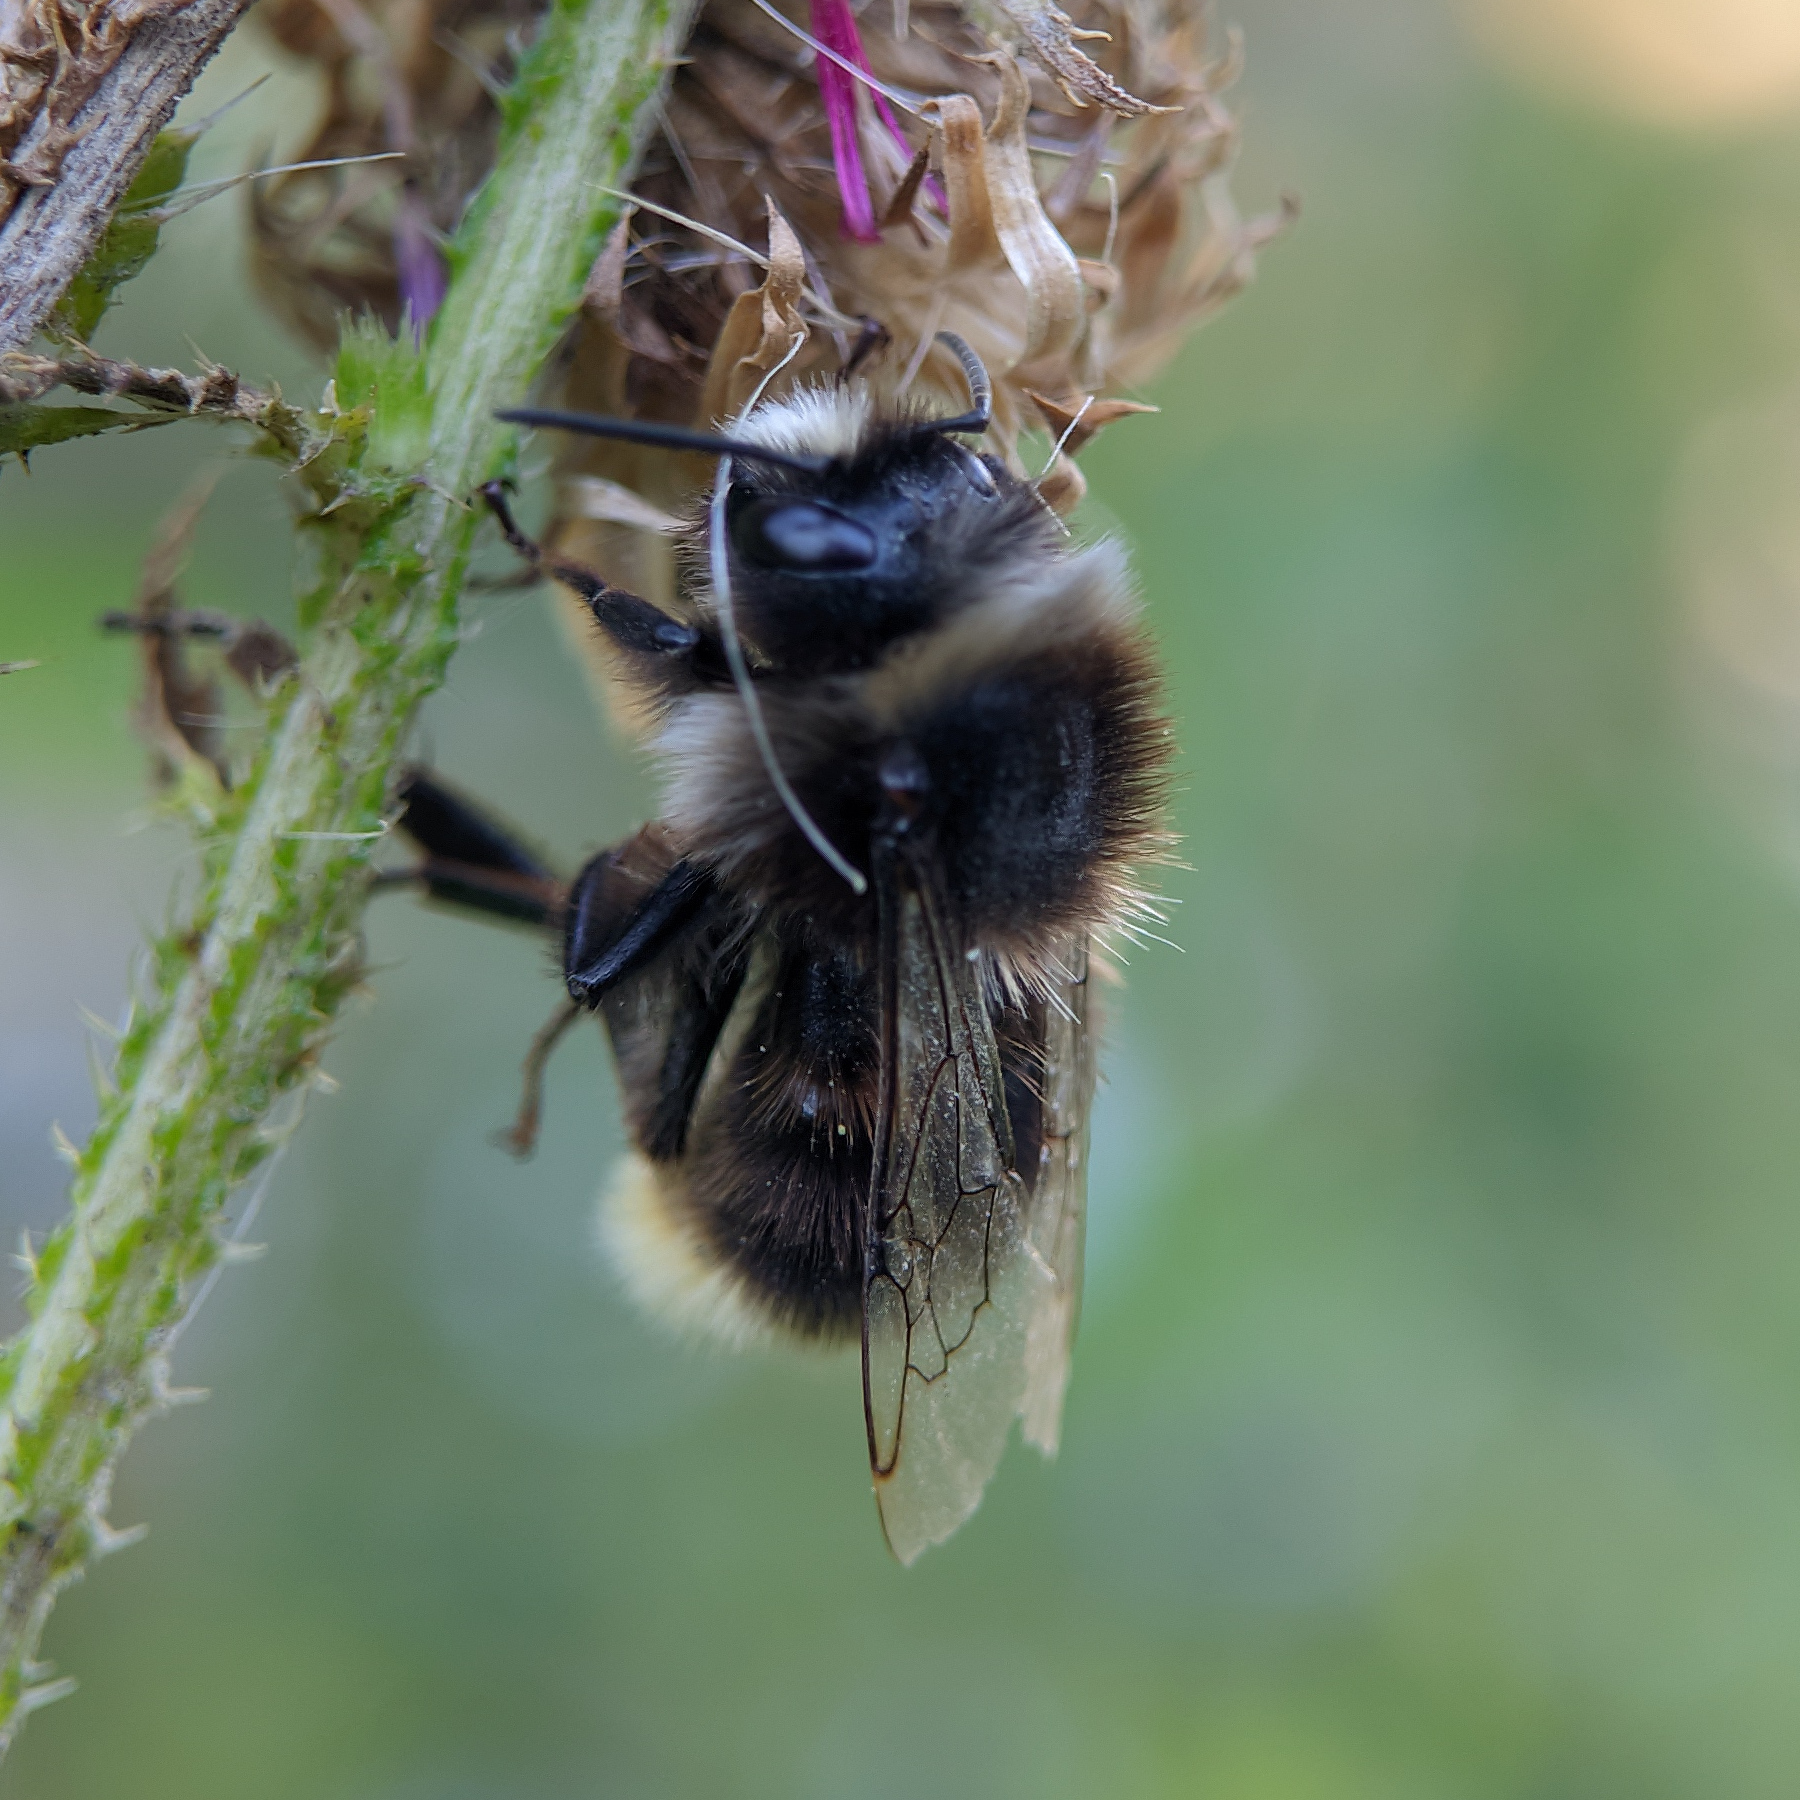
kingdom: Animalia
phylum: Arthropoda
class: Insecta
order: Hymenoptera
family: Apidae
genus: Bombus
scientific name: Bombus lapidarius
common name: Large red-tailed humble-bee
